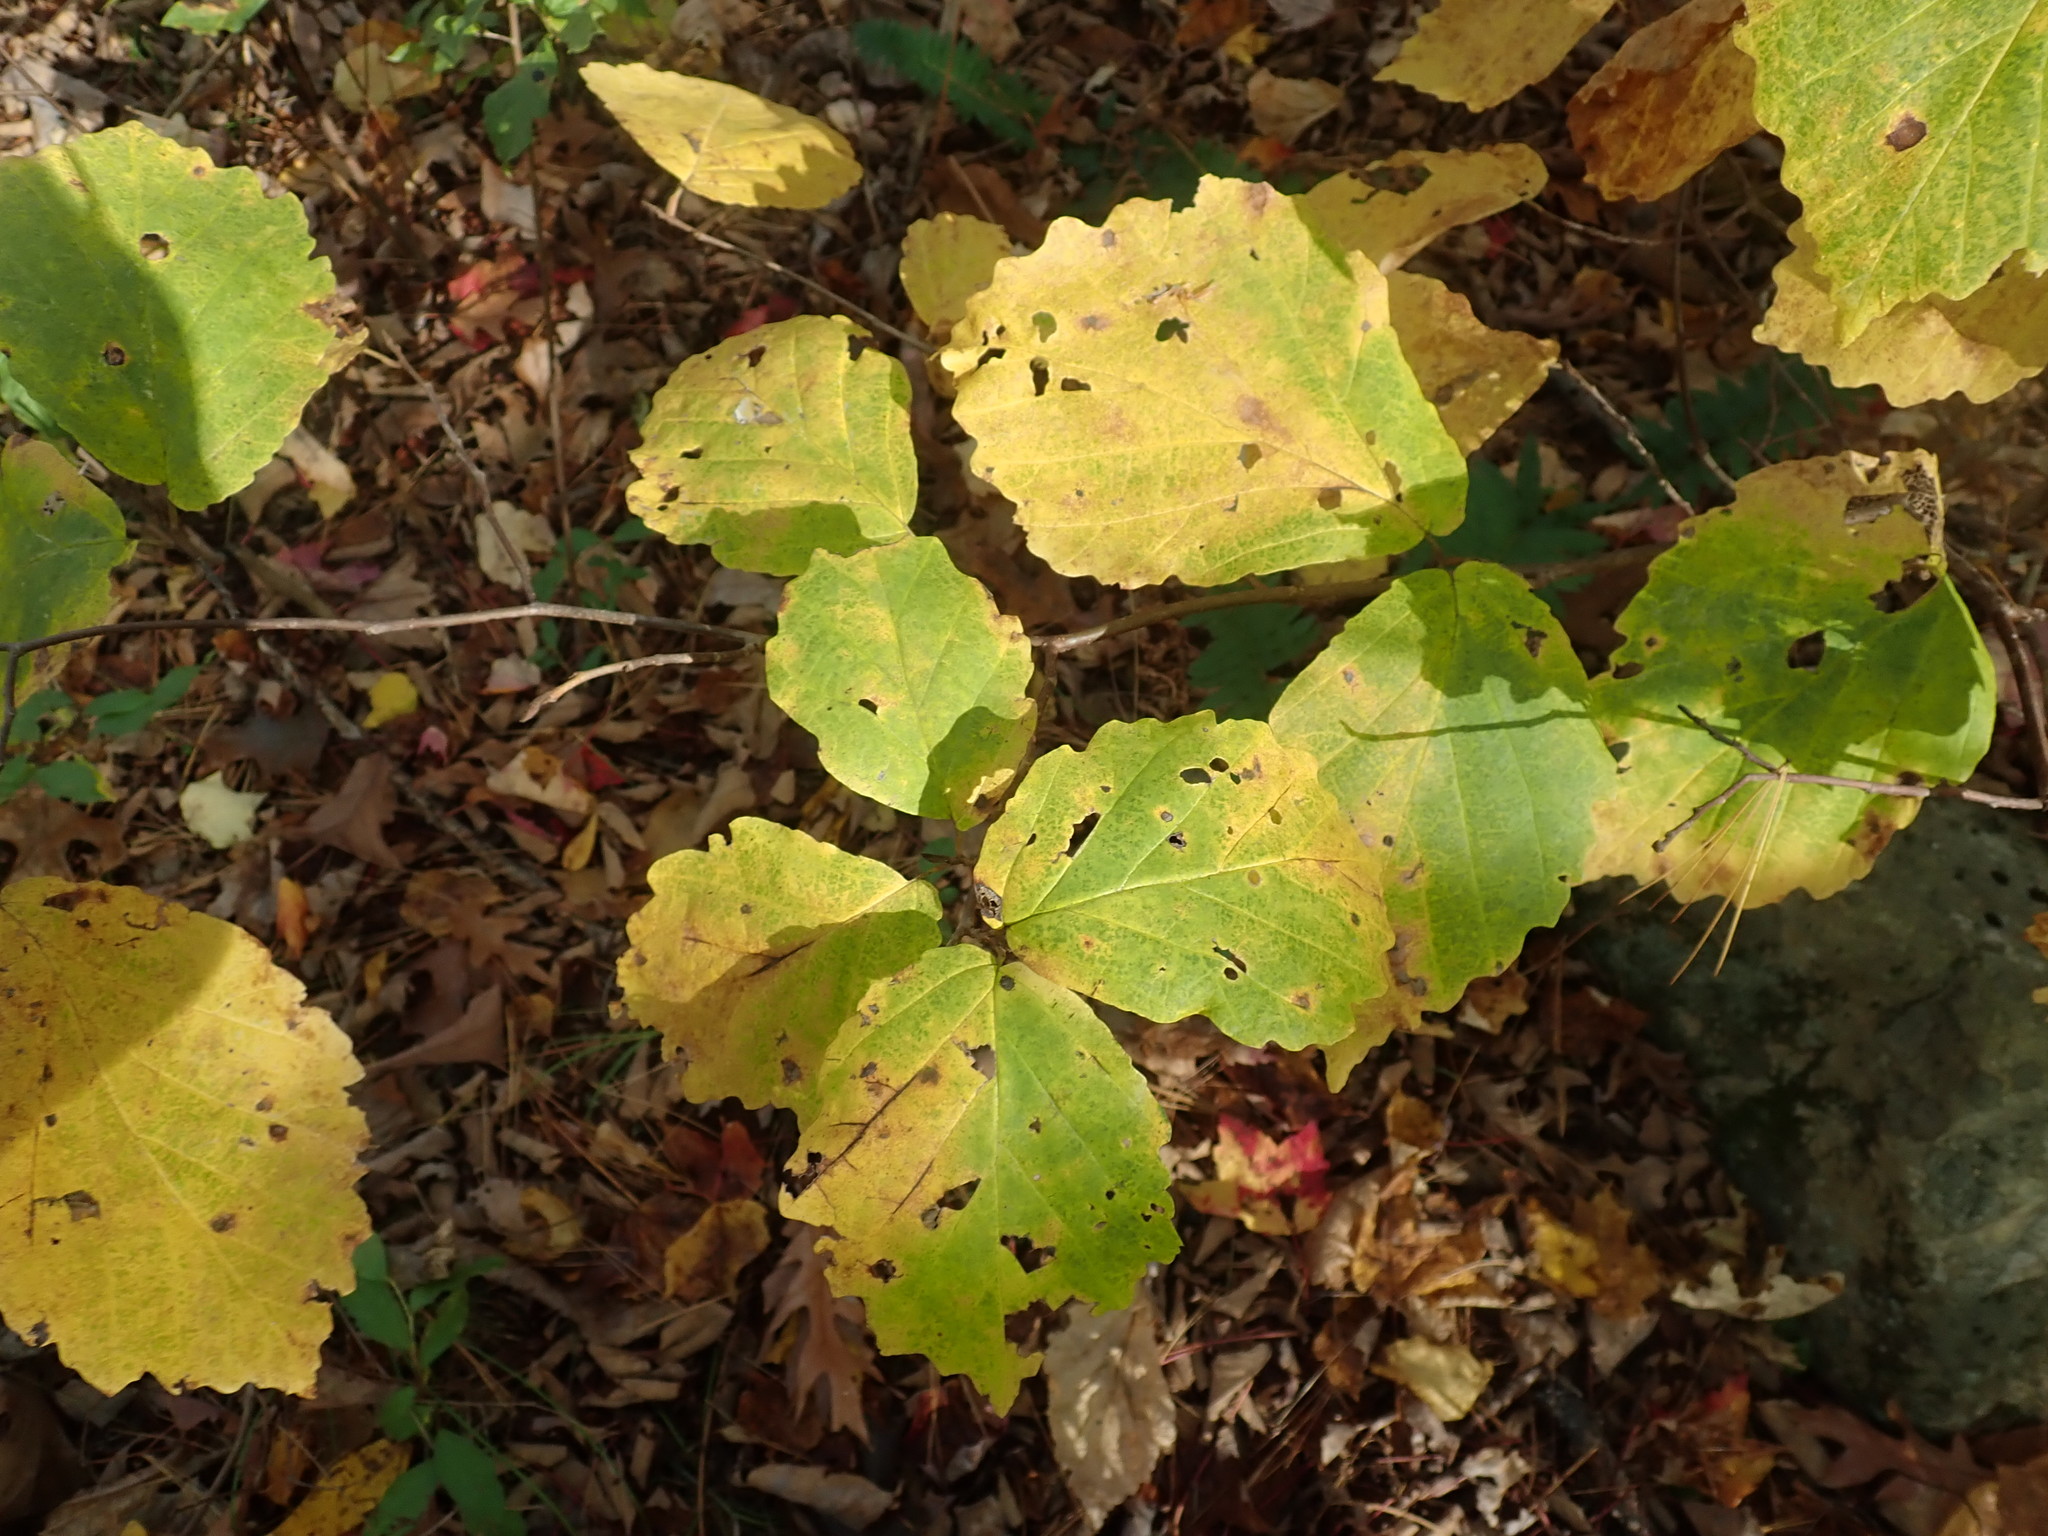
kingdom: Plantae
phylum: Tracheophyta
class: Magnoliopsida
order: Saxifragales
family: Hamamelidaceae
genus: Hamamelis
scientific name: Hamamelis virginiana
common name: Witch-hazel
